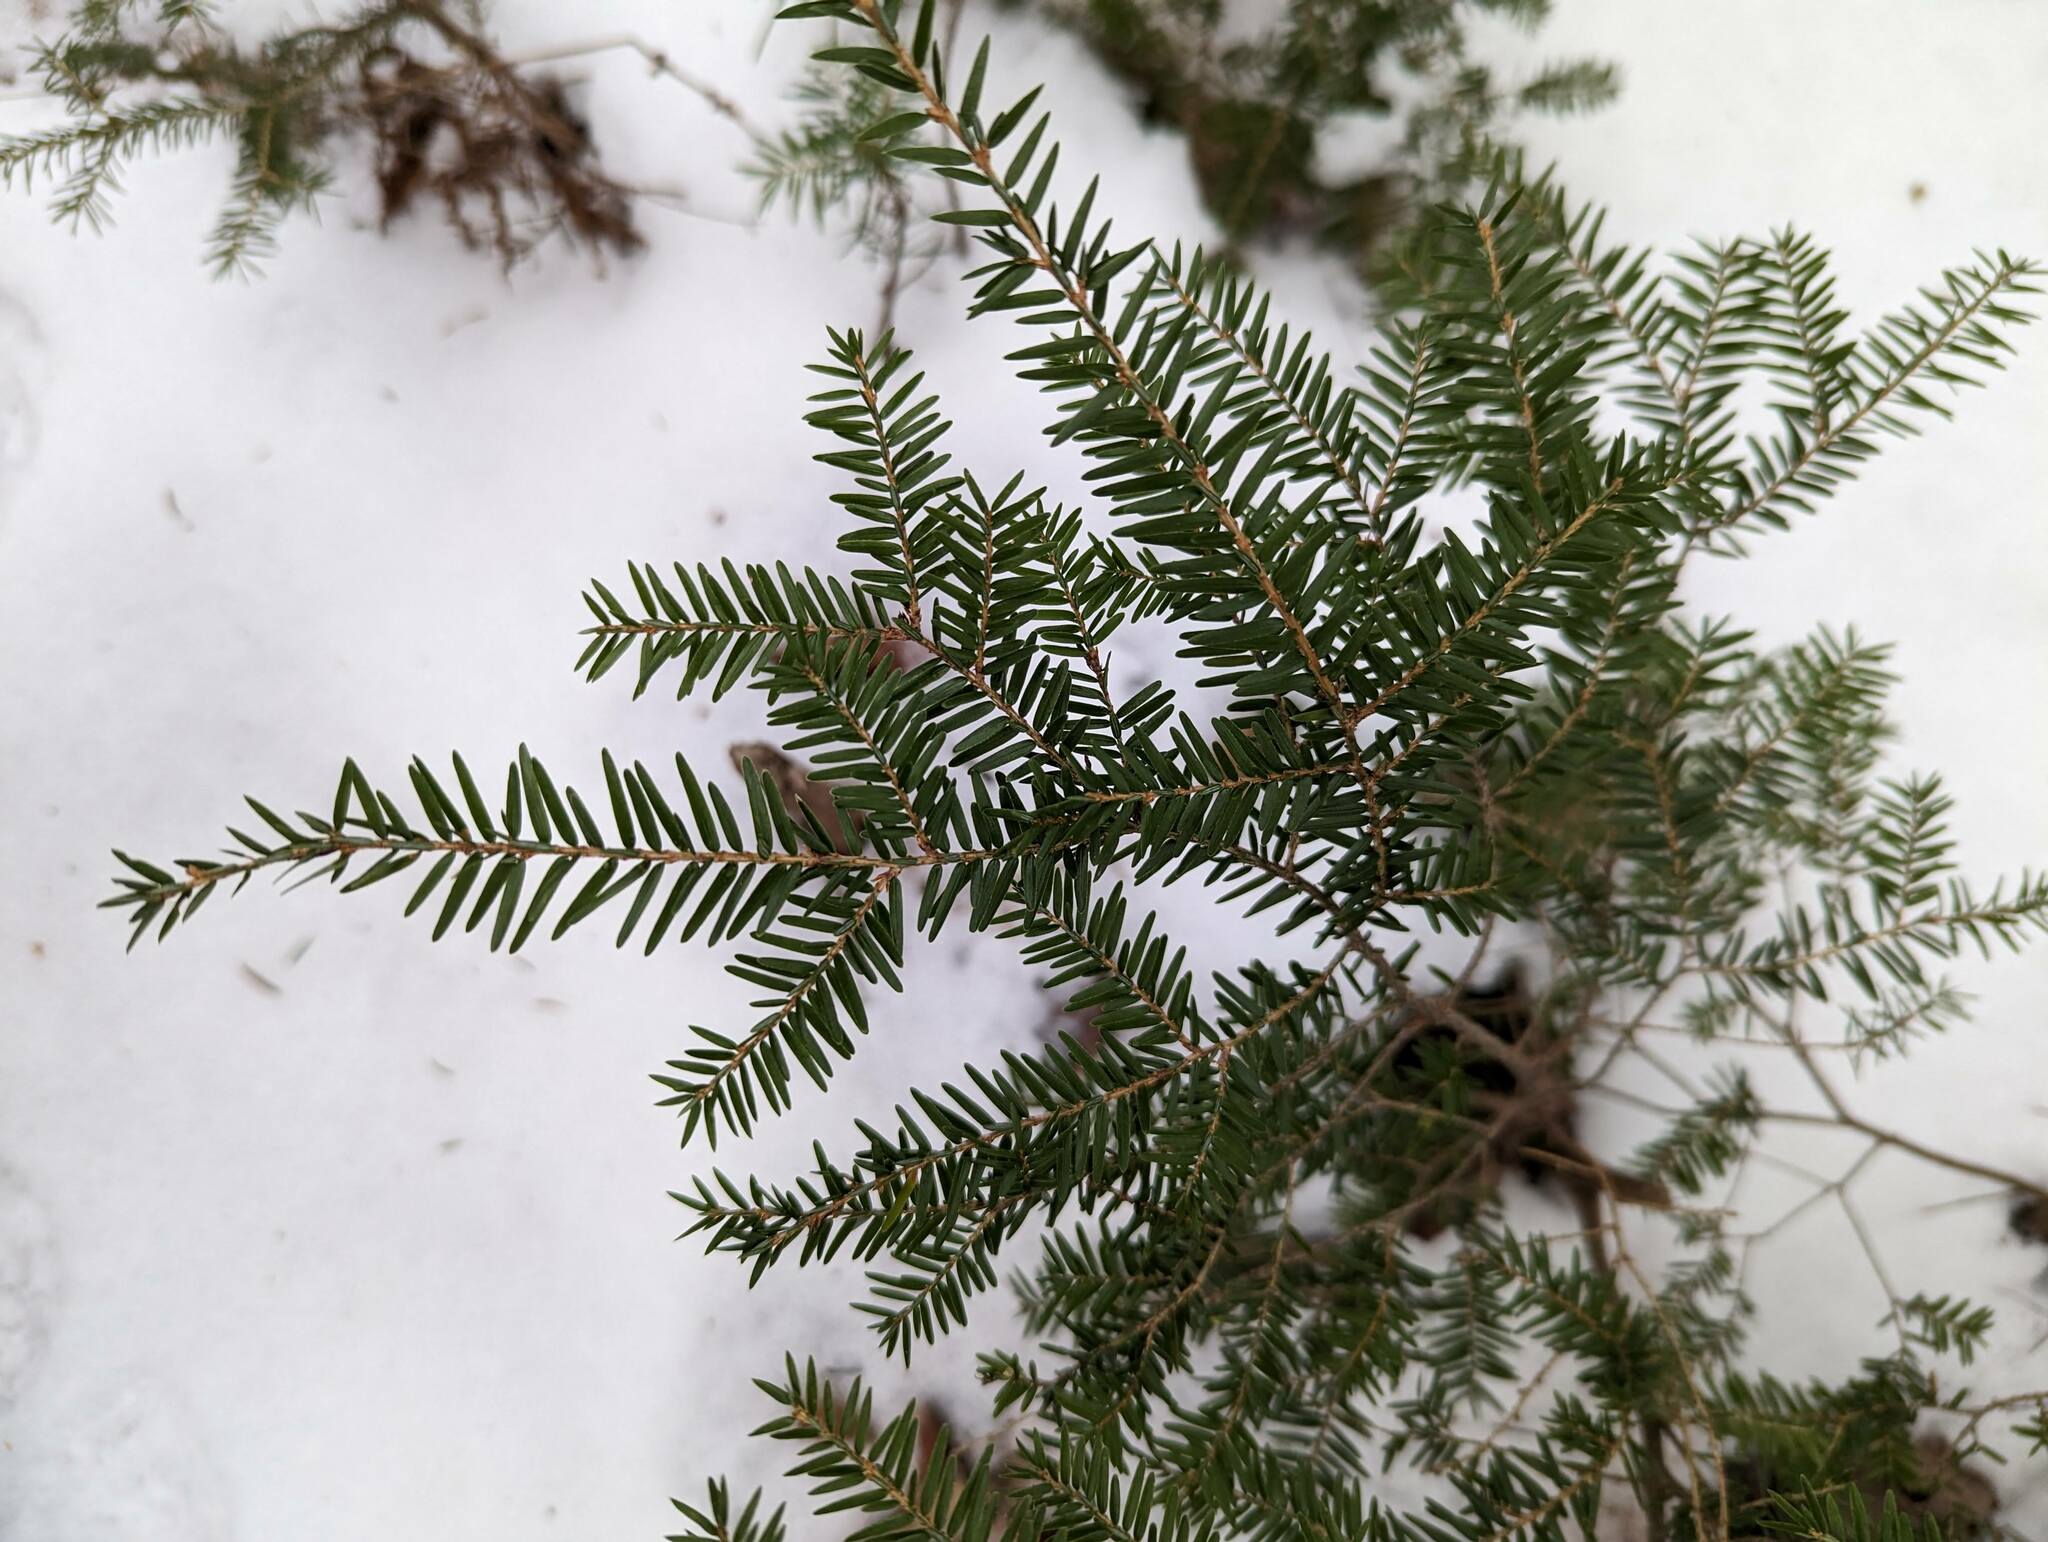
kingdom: Plantae
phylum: Tracheophyta
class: Pinopsida
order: Pinales
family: Pinaceae
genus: Tsuga
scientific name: Tsuga canadensis
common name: Eastern hemlock
